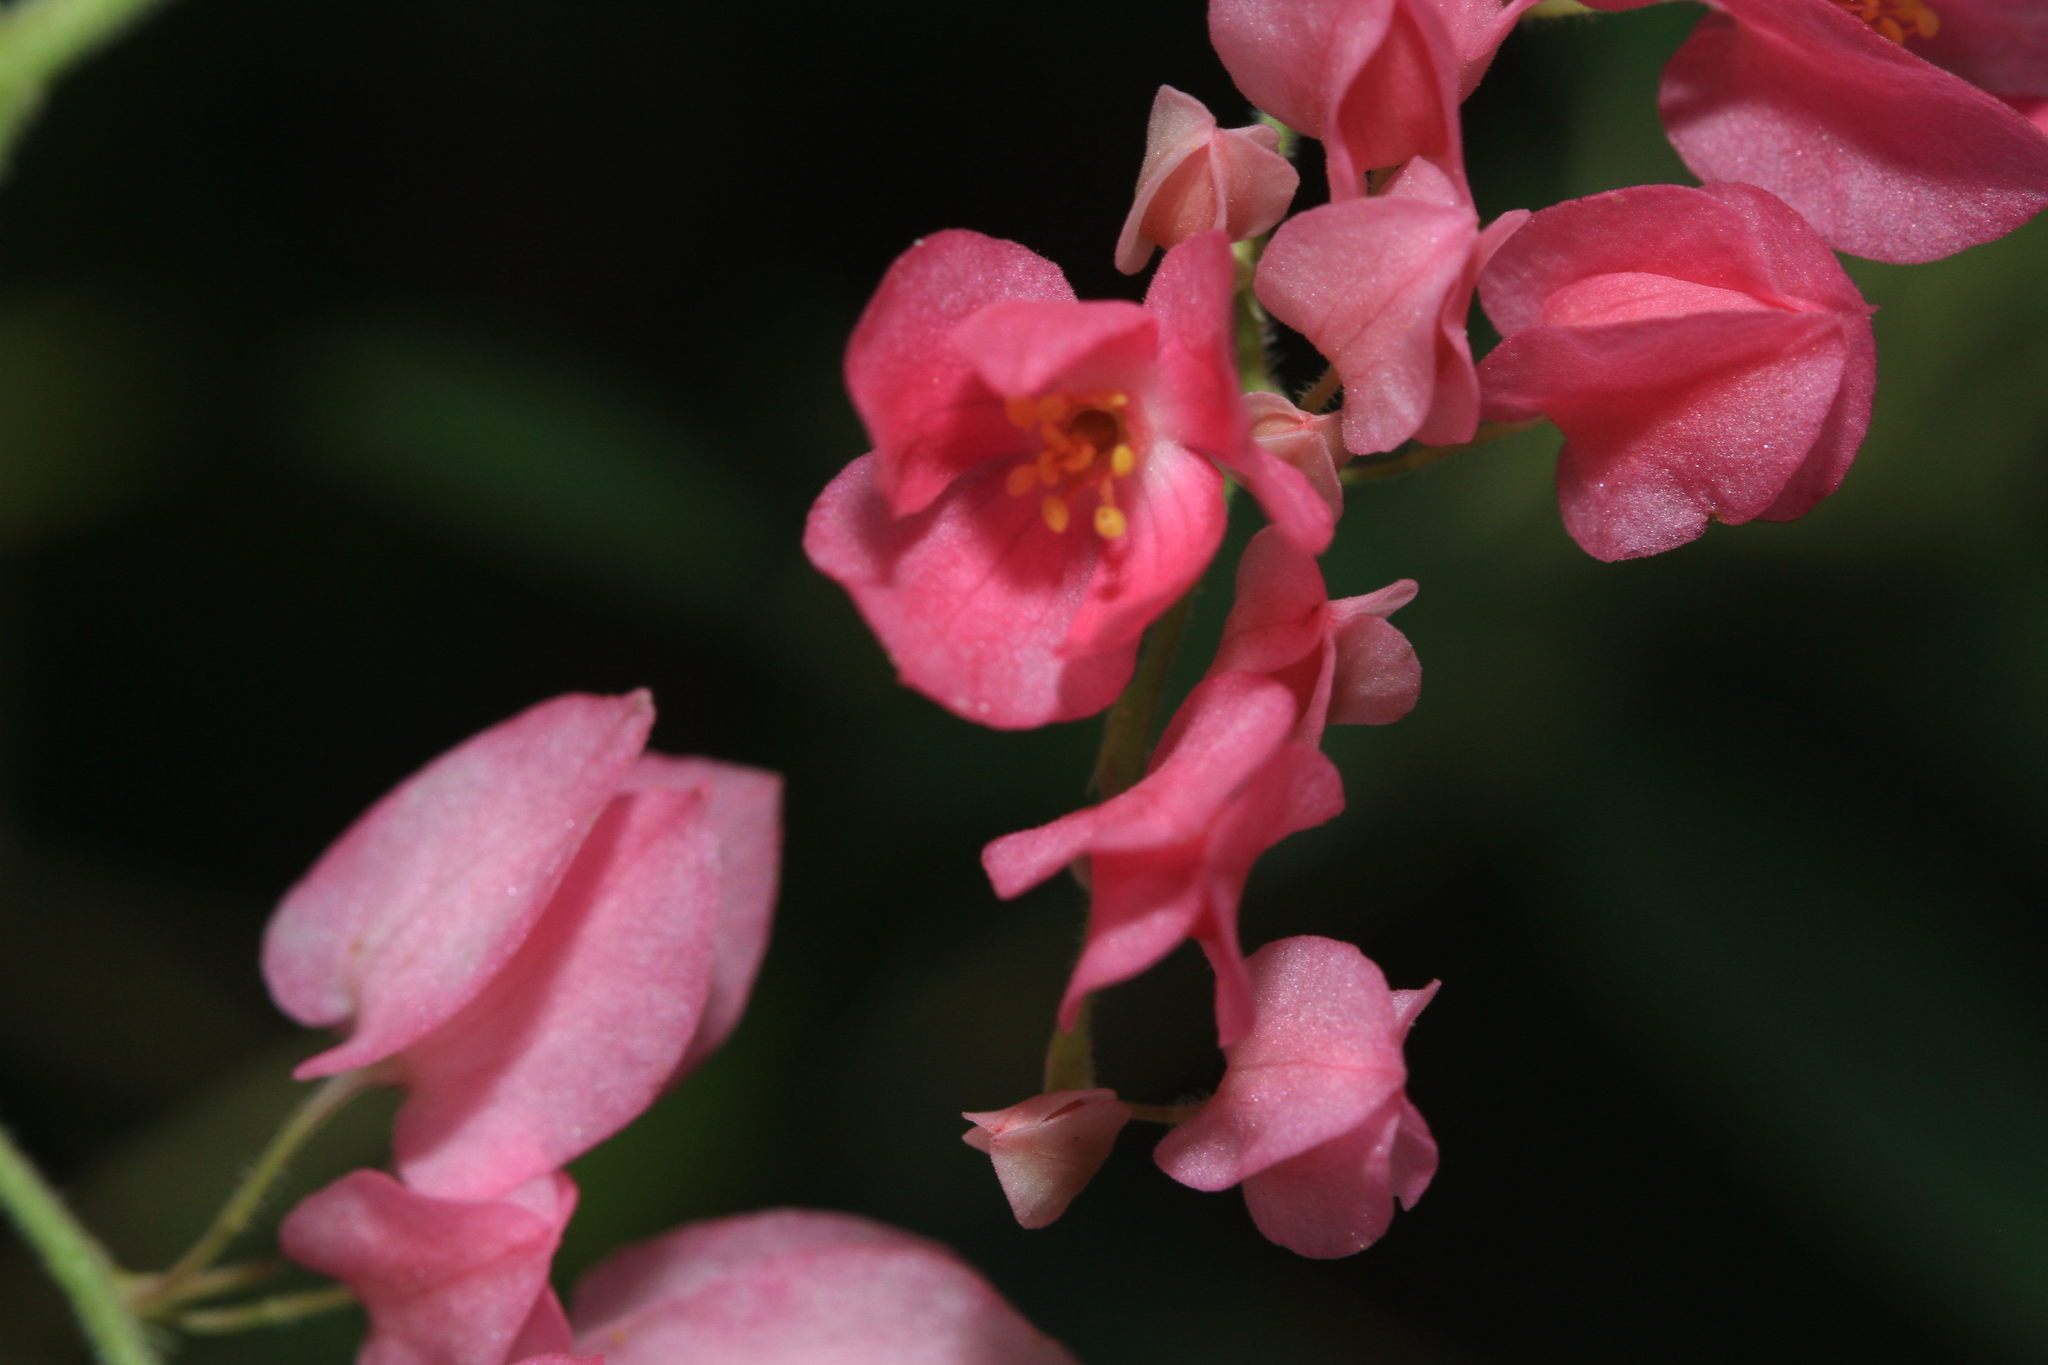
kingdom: Plantae
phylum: Tracheophyta
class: Magnoliopsida
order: Caryophyllales
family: Polygonaceae
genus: Antigonon
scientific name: Antigonon leptopus
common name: Coral vine
